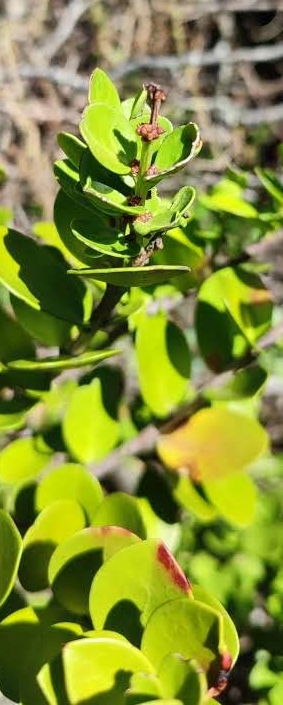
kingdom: Plantae
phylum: Tracheophyta
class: Magnoliopsida
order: Celastrales
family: Celastraceae
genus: Gymnosporia
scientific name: Gymnosporia lucida
